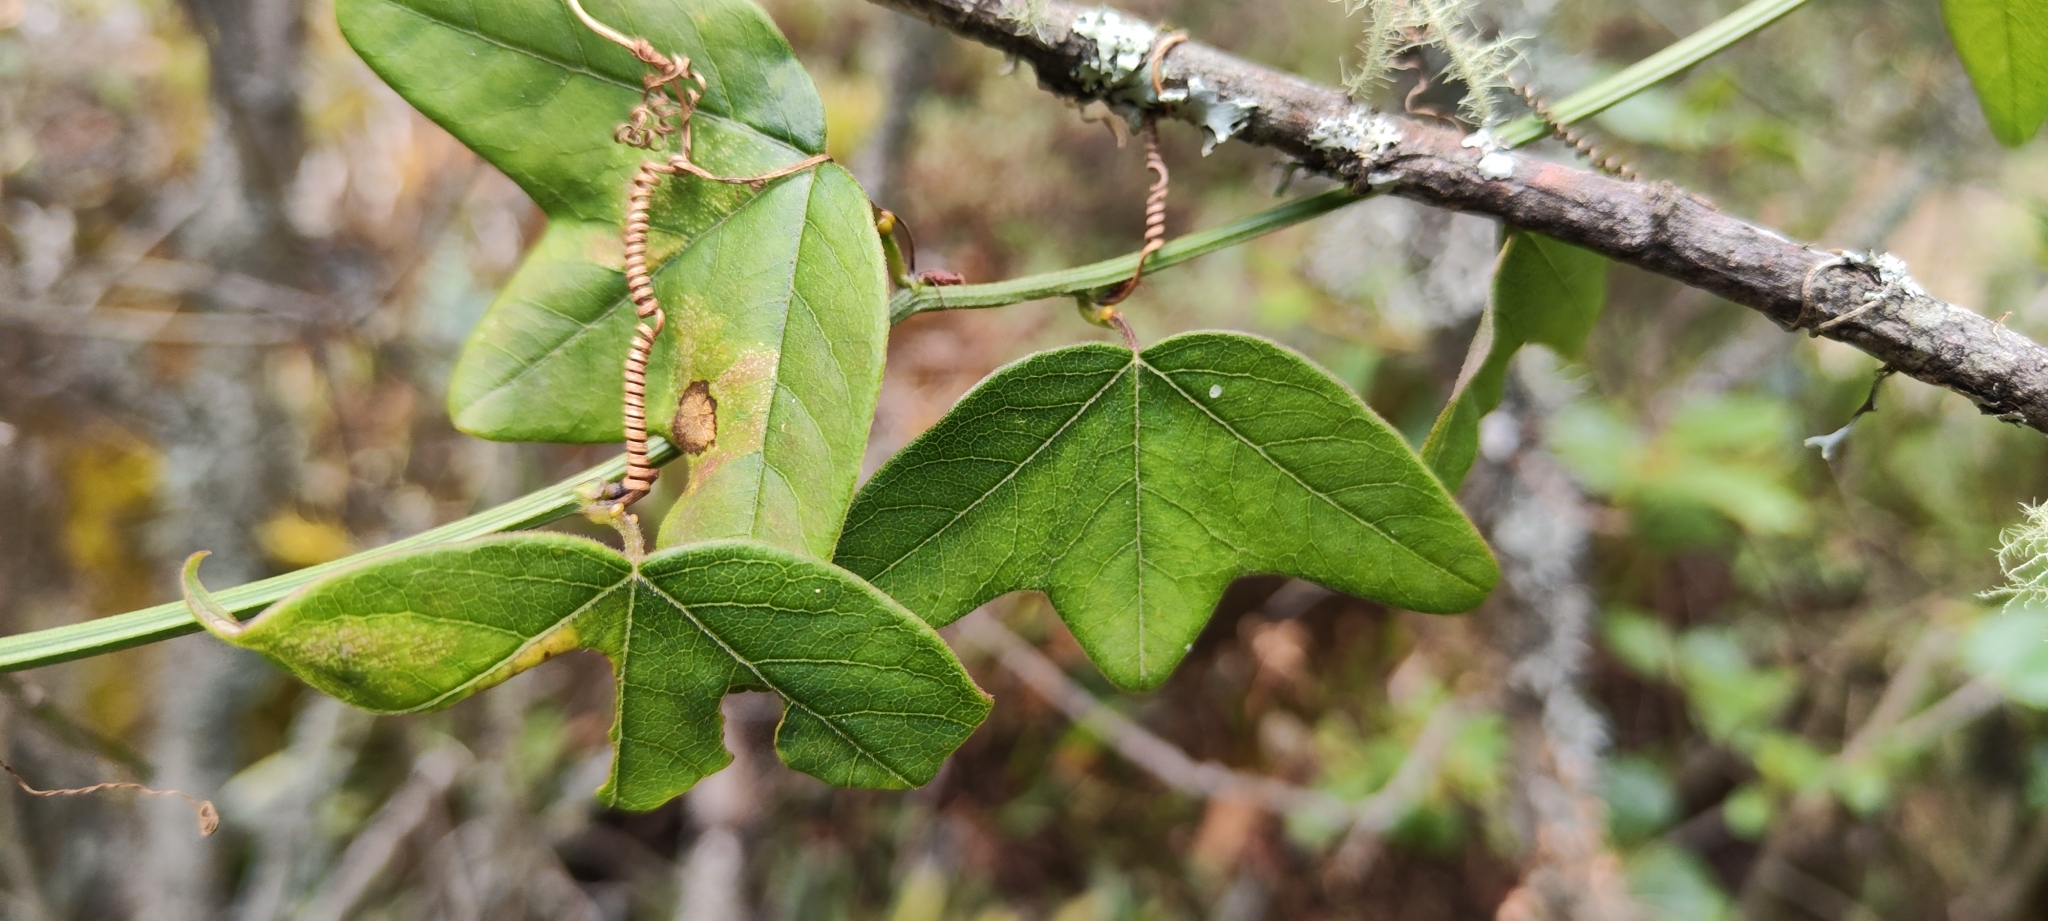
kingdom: Plantae
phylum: Tracheophyta
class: Magnoliopsida
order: Malpighiales
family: Passifloraceae
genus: Passiflora
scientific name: Passiflora sagasteguii
